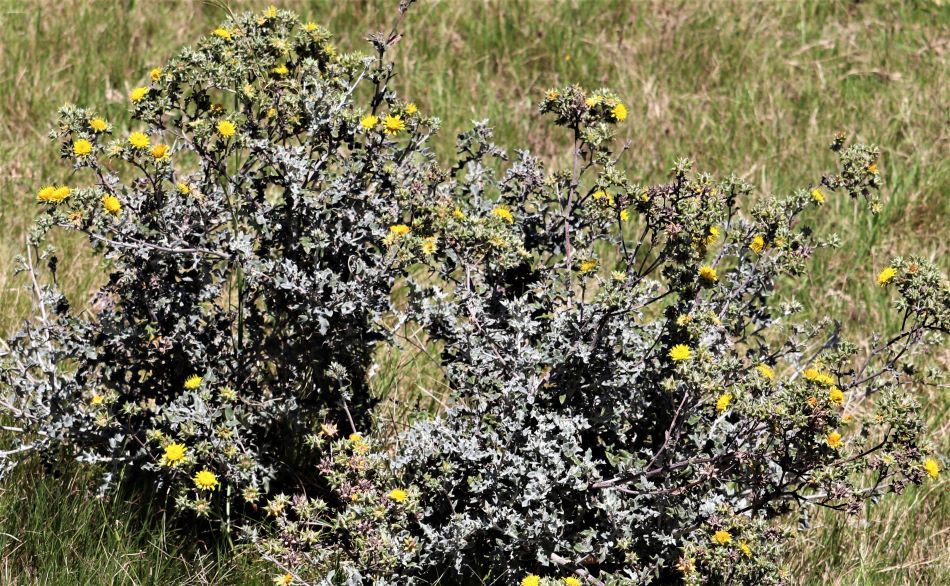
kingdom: Plantae
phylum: Tracheophyta
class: Magnoliopsida
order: Asterales
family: Asteraceae
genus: Berkheya
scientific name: Berkheya heterophylla
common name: Prickly gousblom
